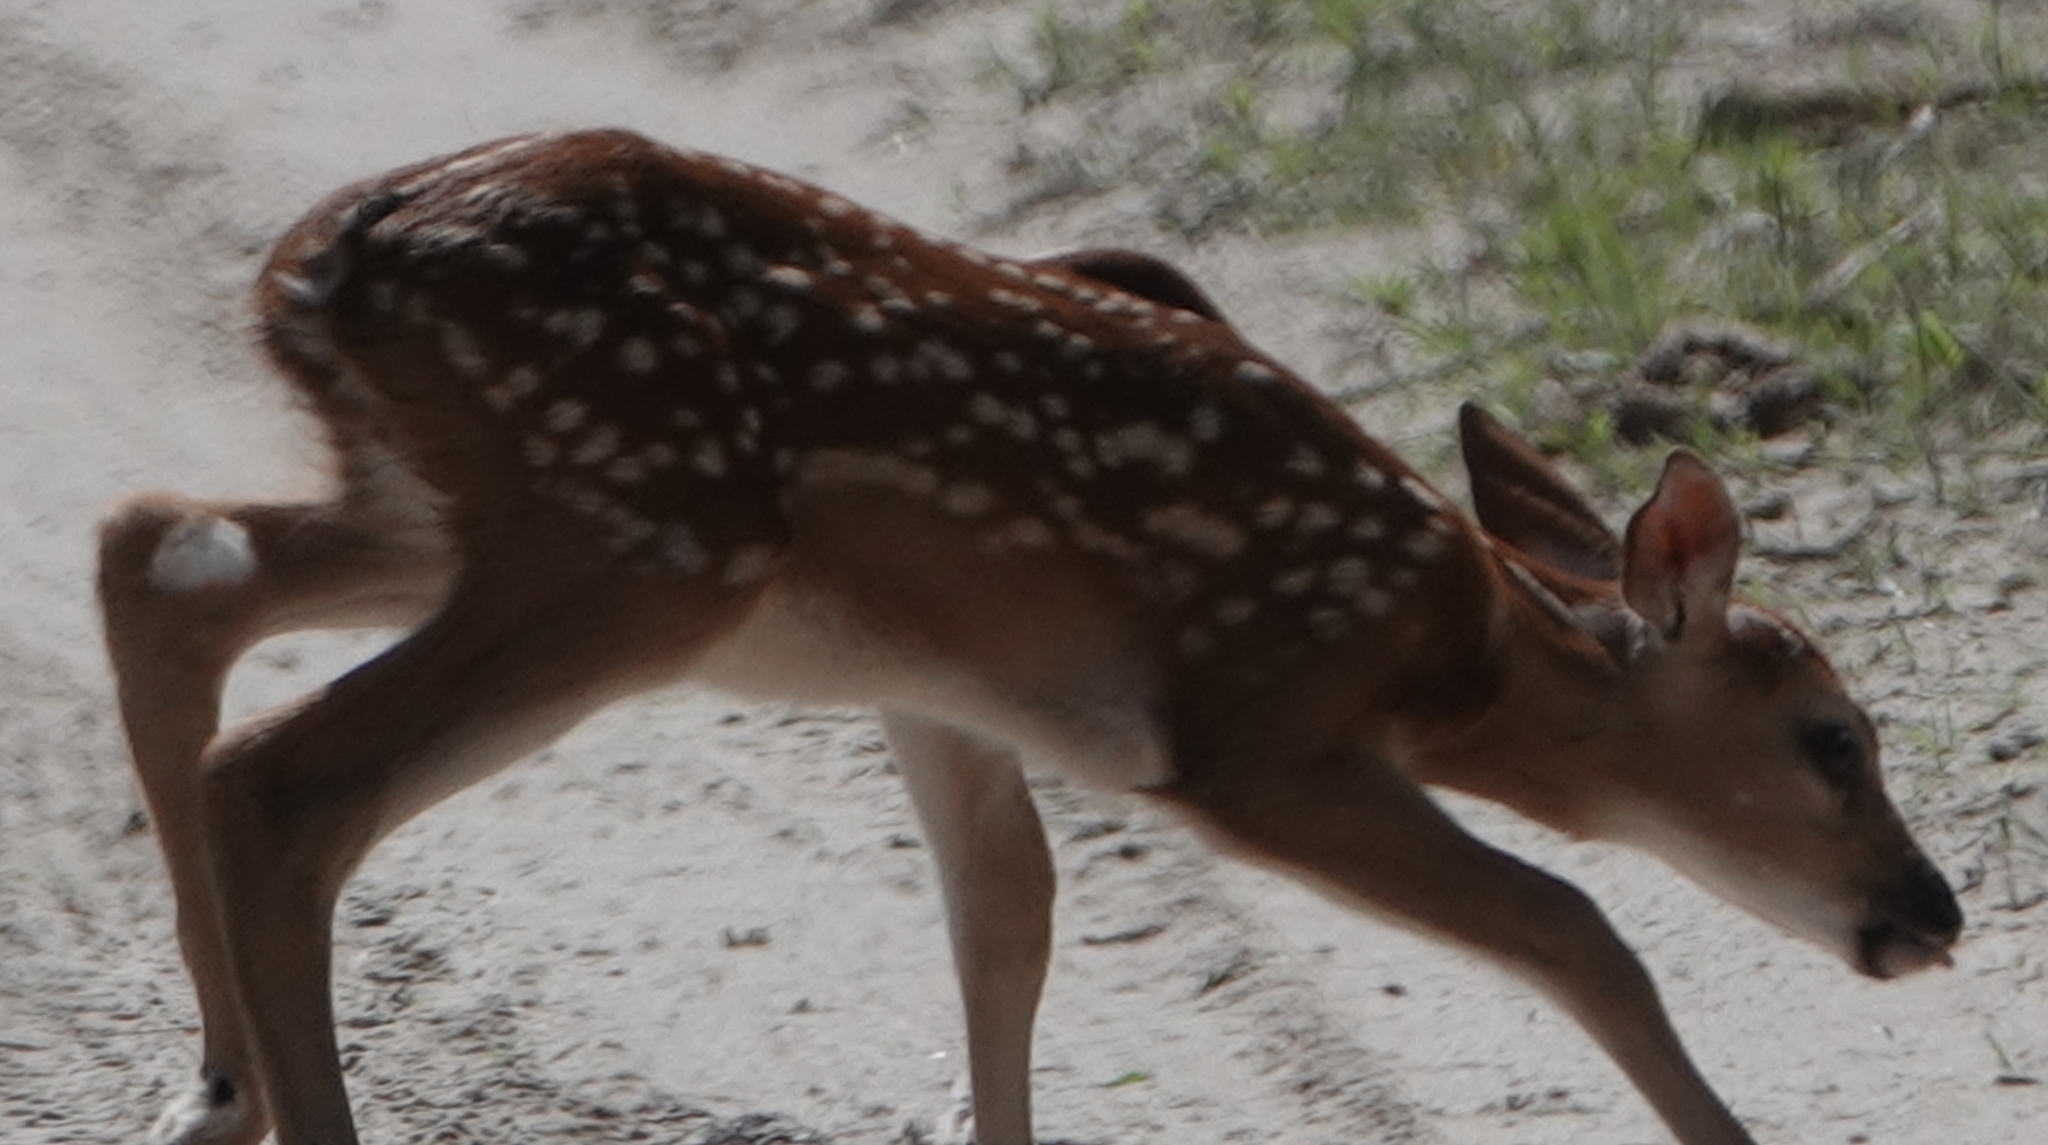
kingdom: Animalia
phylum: Chordata
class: Mammalia
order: Artiodactyla
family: Cervidae
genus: Odocoileus
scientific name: Odocoileus virginianus
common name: White-tailed deer
